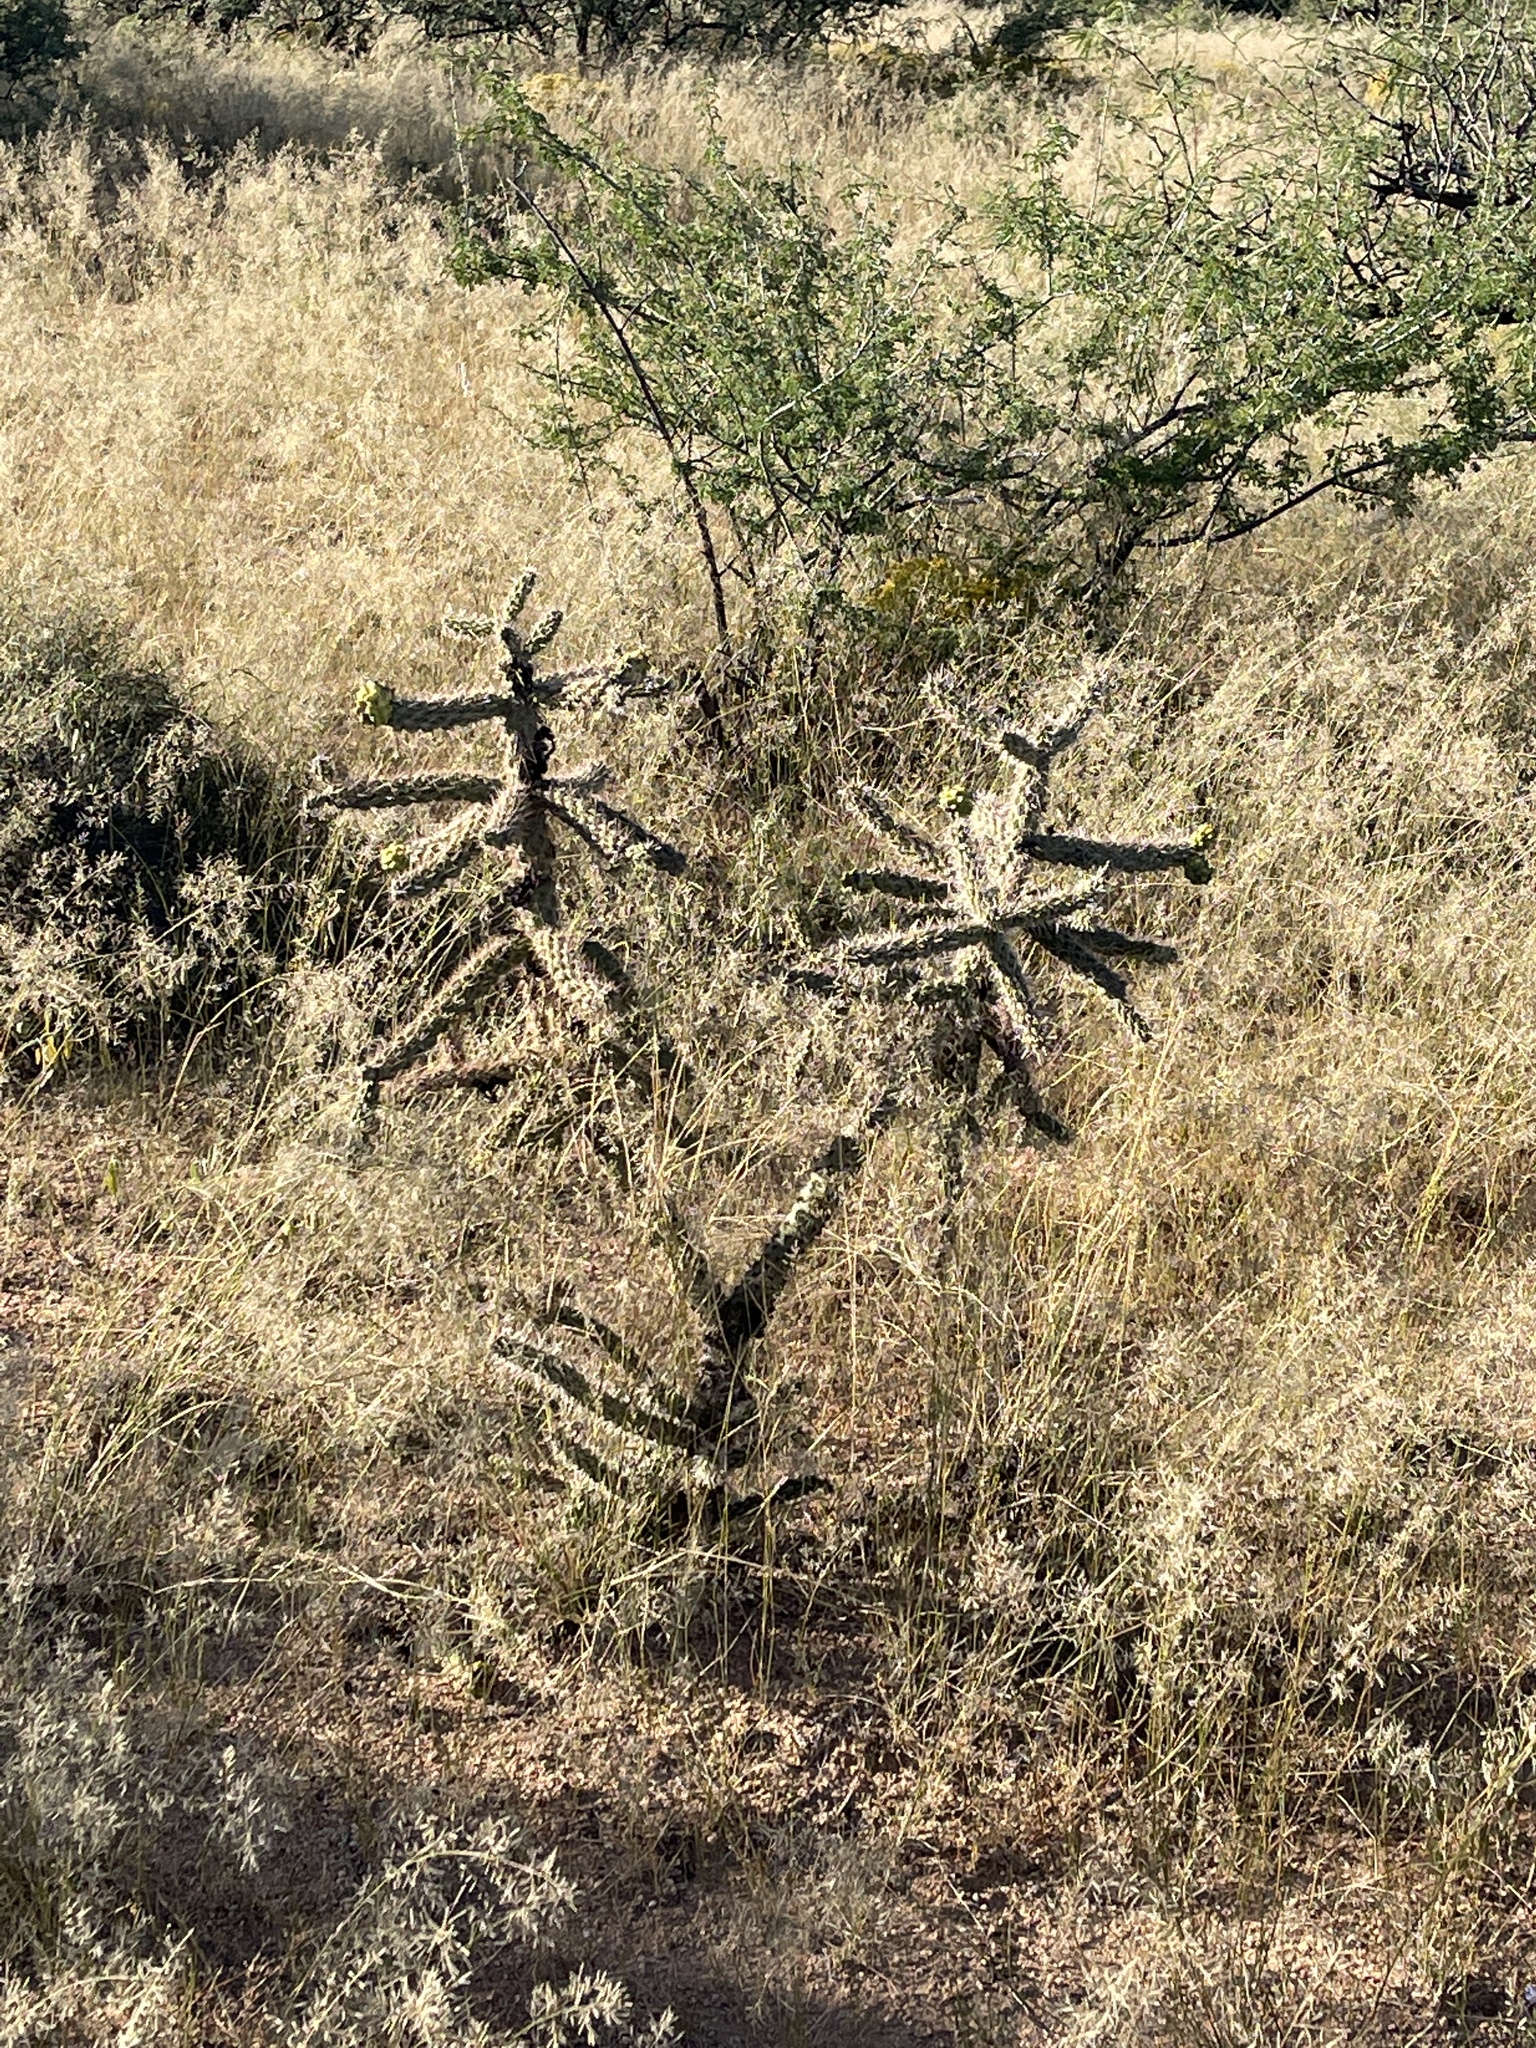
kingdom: Plantae
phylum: Tracheophyta
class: Magnoliopsida
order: Caryophyllales
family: Cactaceae
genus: Cylindropuntia
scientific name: Cylindropuntia imbricata
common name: Candelabrum cactus
